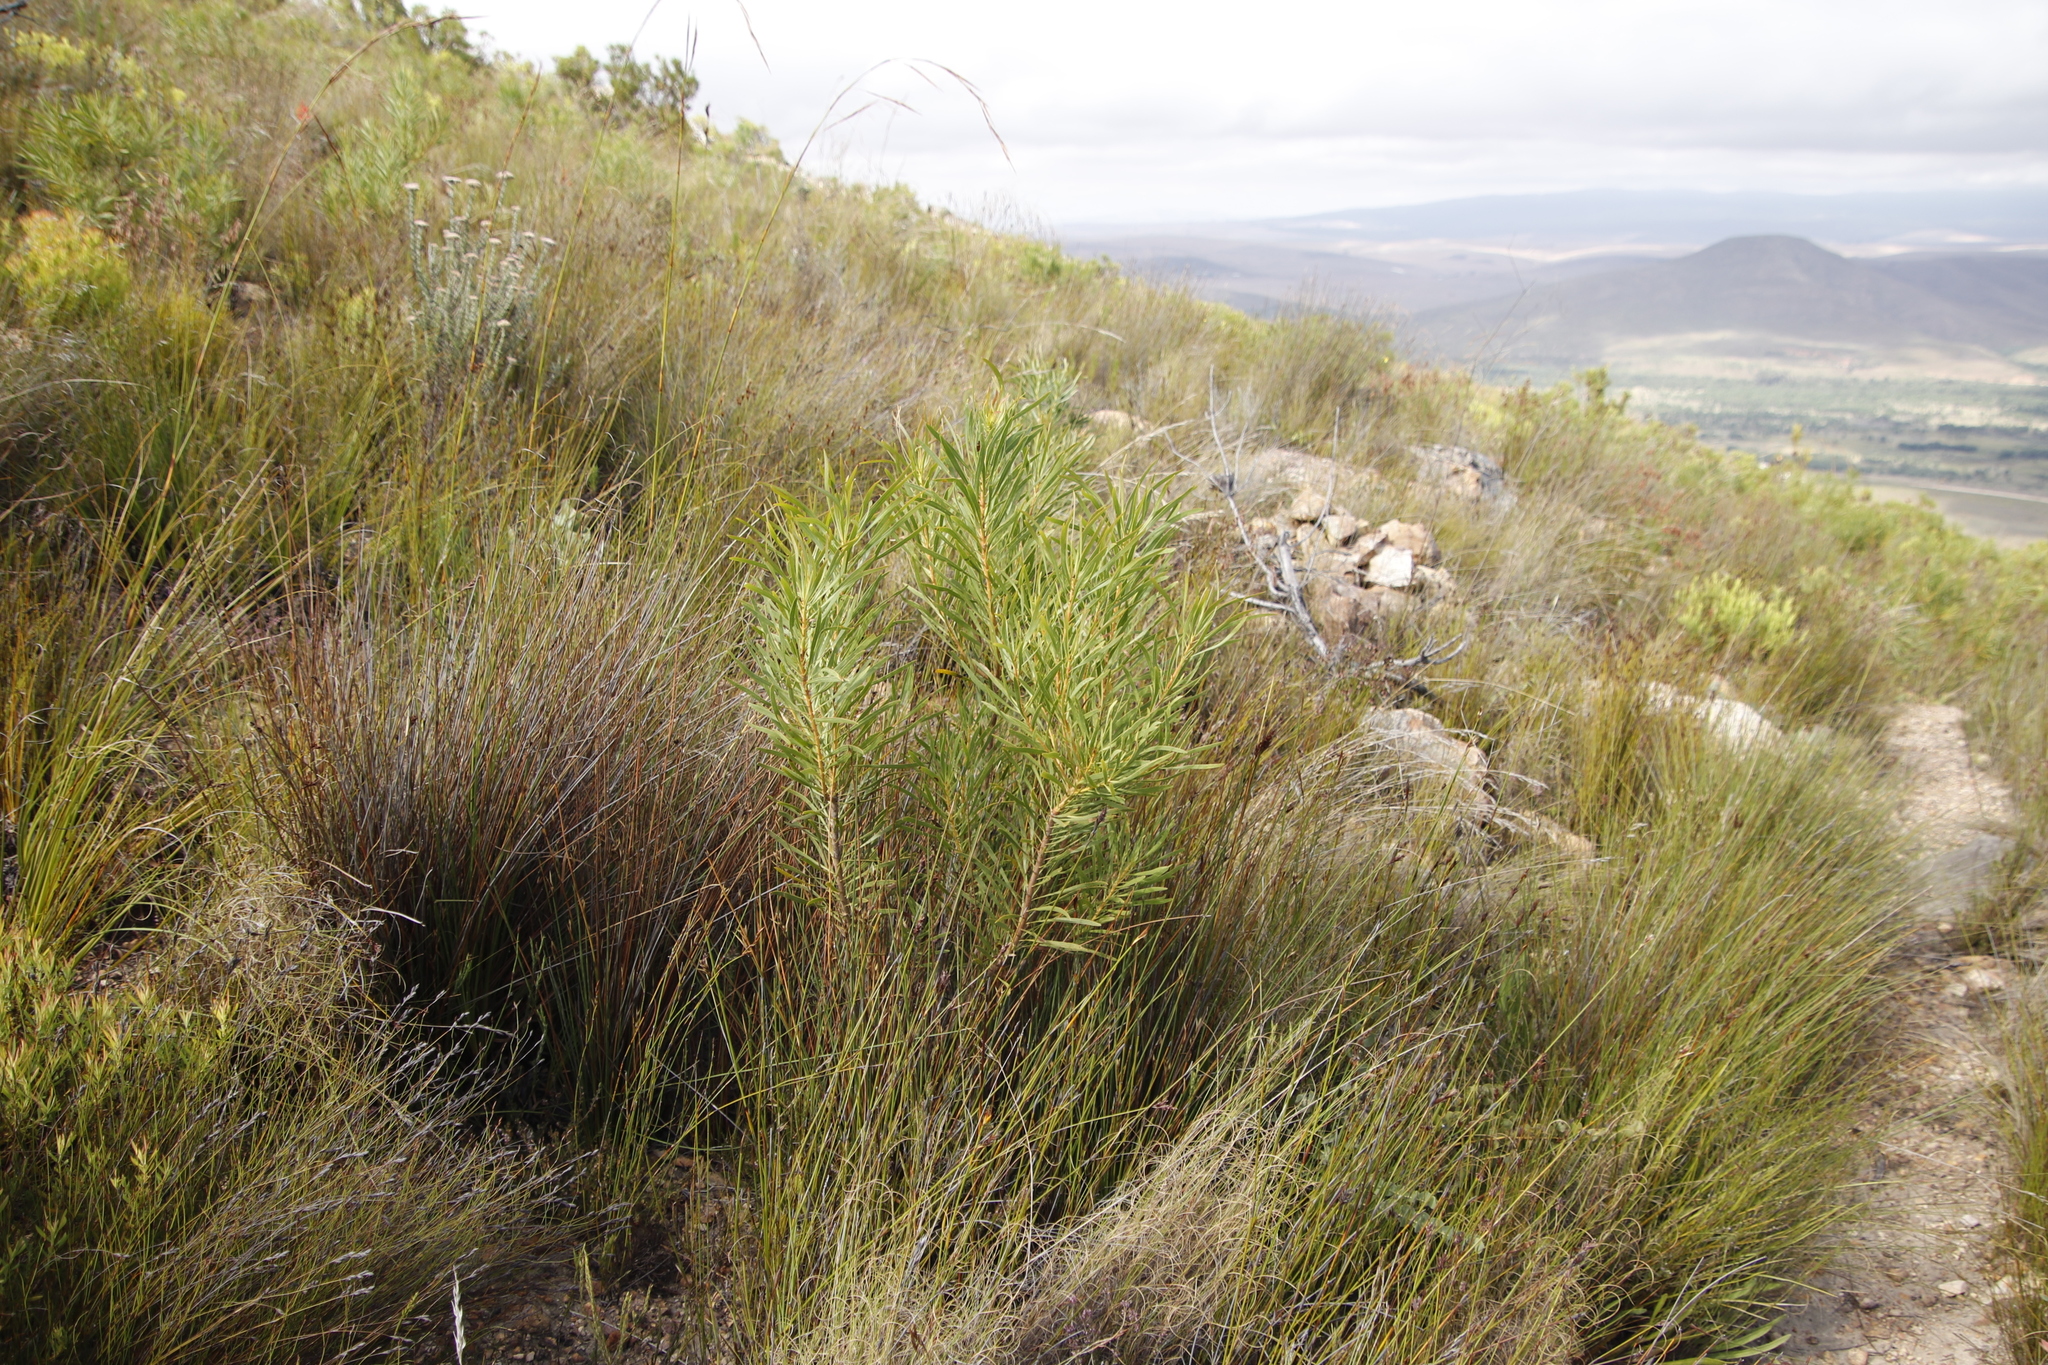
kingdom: Plantae
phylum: Tracheophyta
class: Magnoliopsida
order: Proteales
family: Proteaceae
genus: Protea
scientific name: Protea repens
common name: Sugarbush
